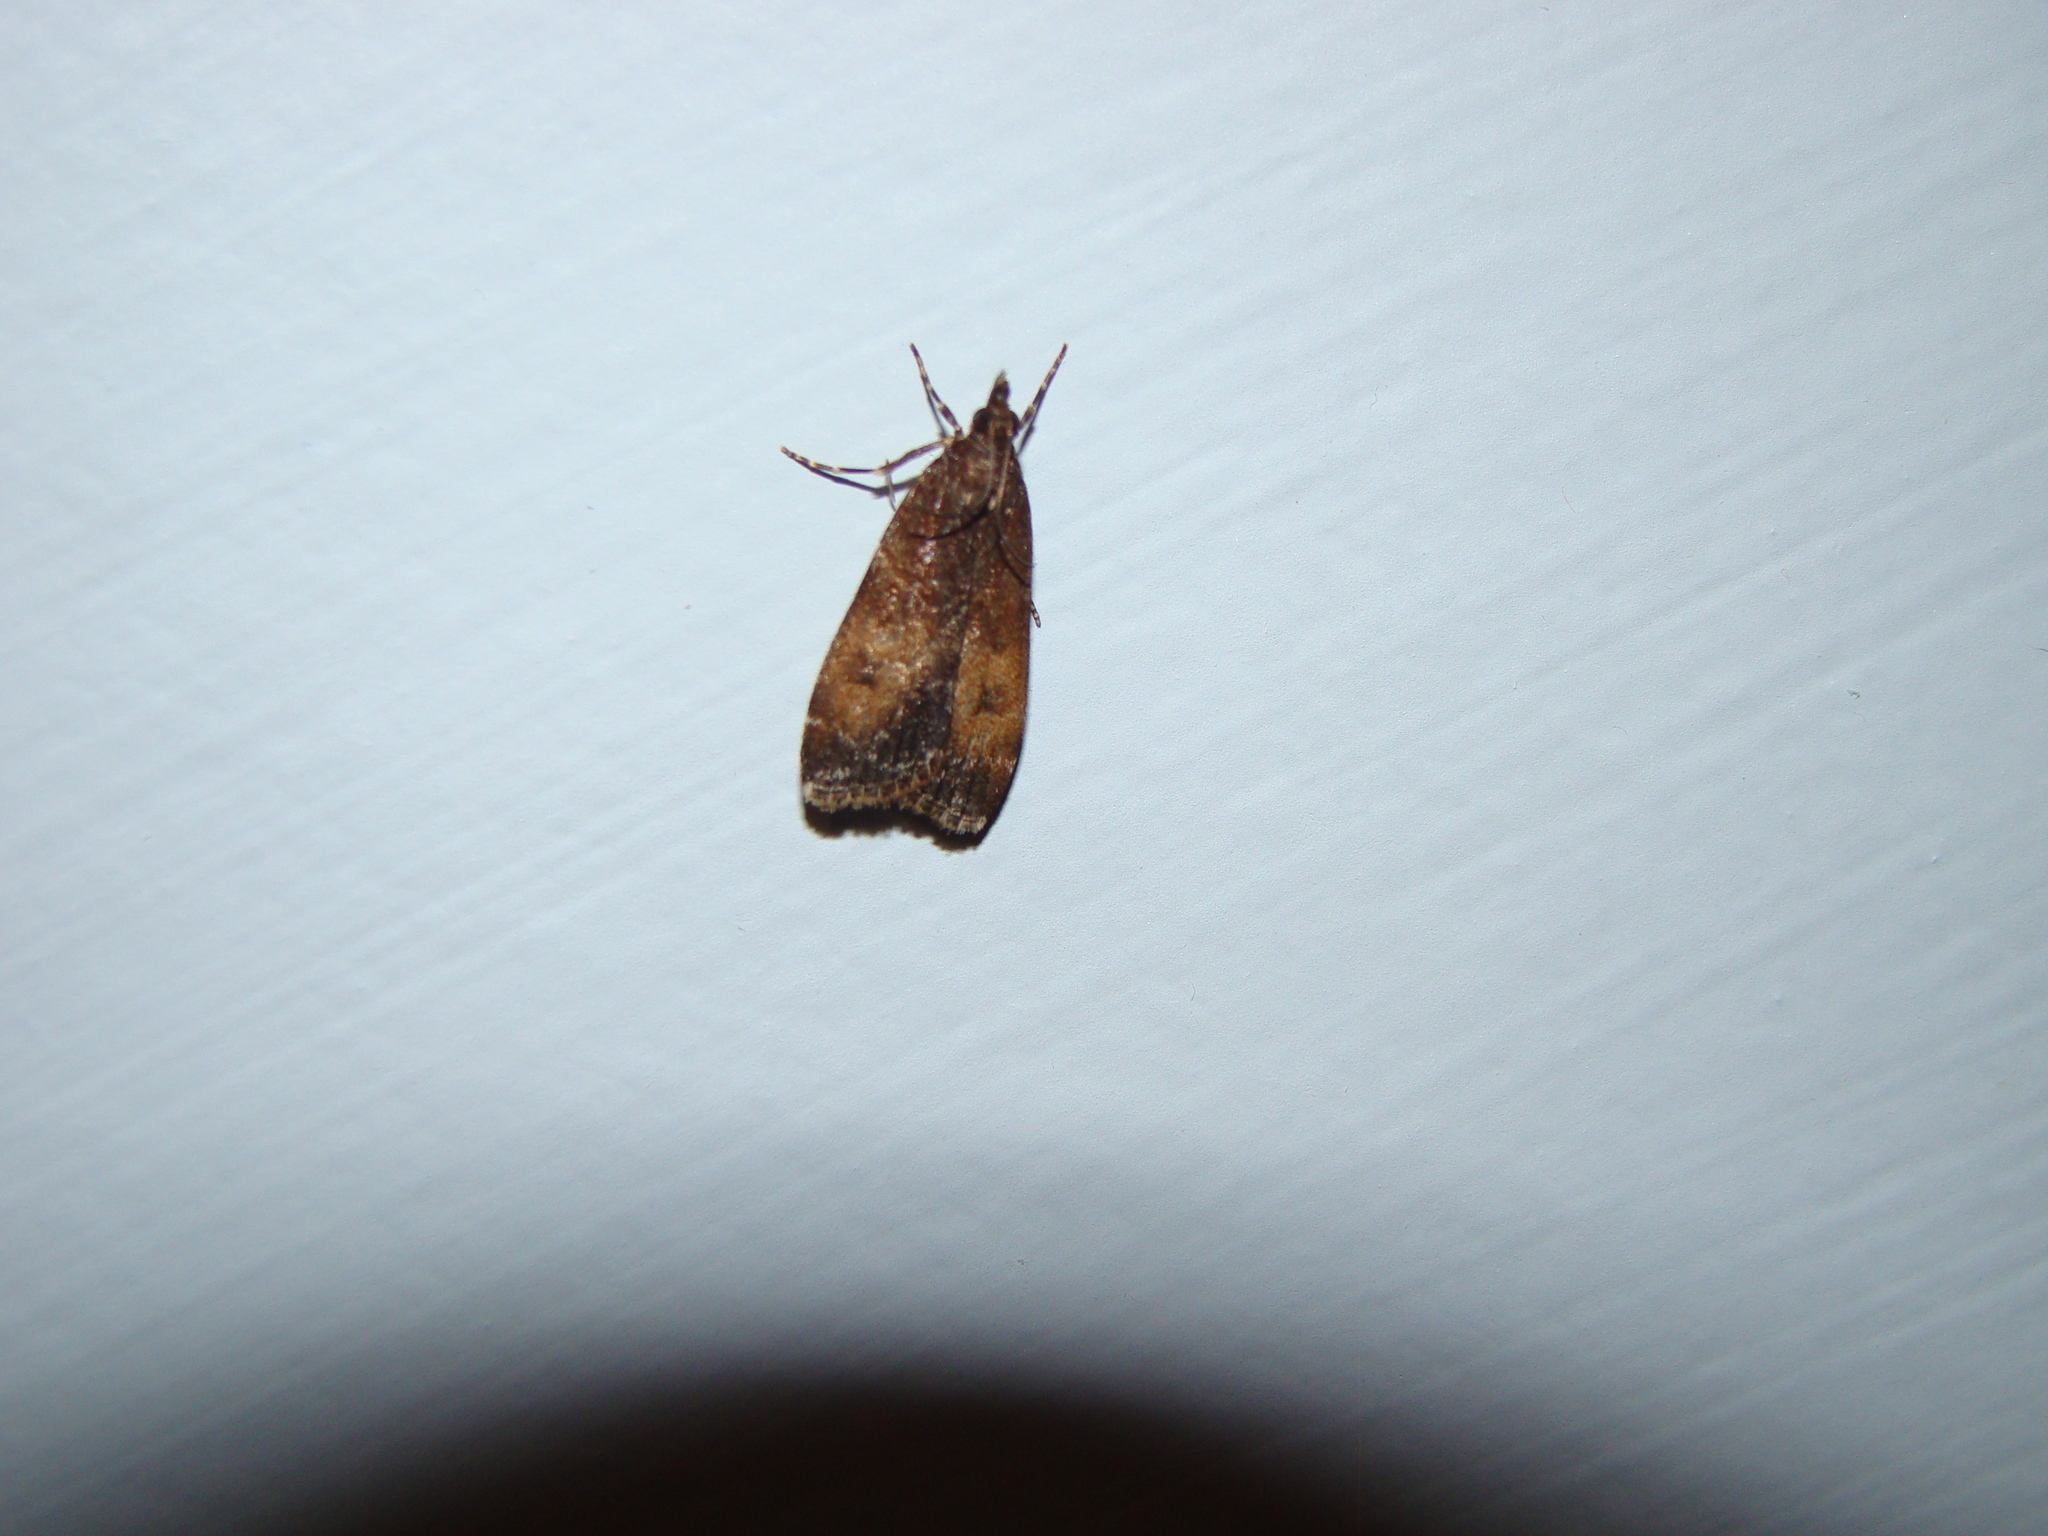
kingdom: Animalia
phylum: Arthropoda
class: Insecta
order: Lepidoptera
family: Crambidae
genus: Eudonia
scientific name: Eudonia asterisca
